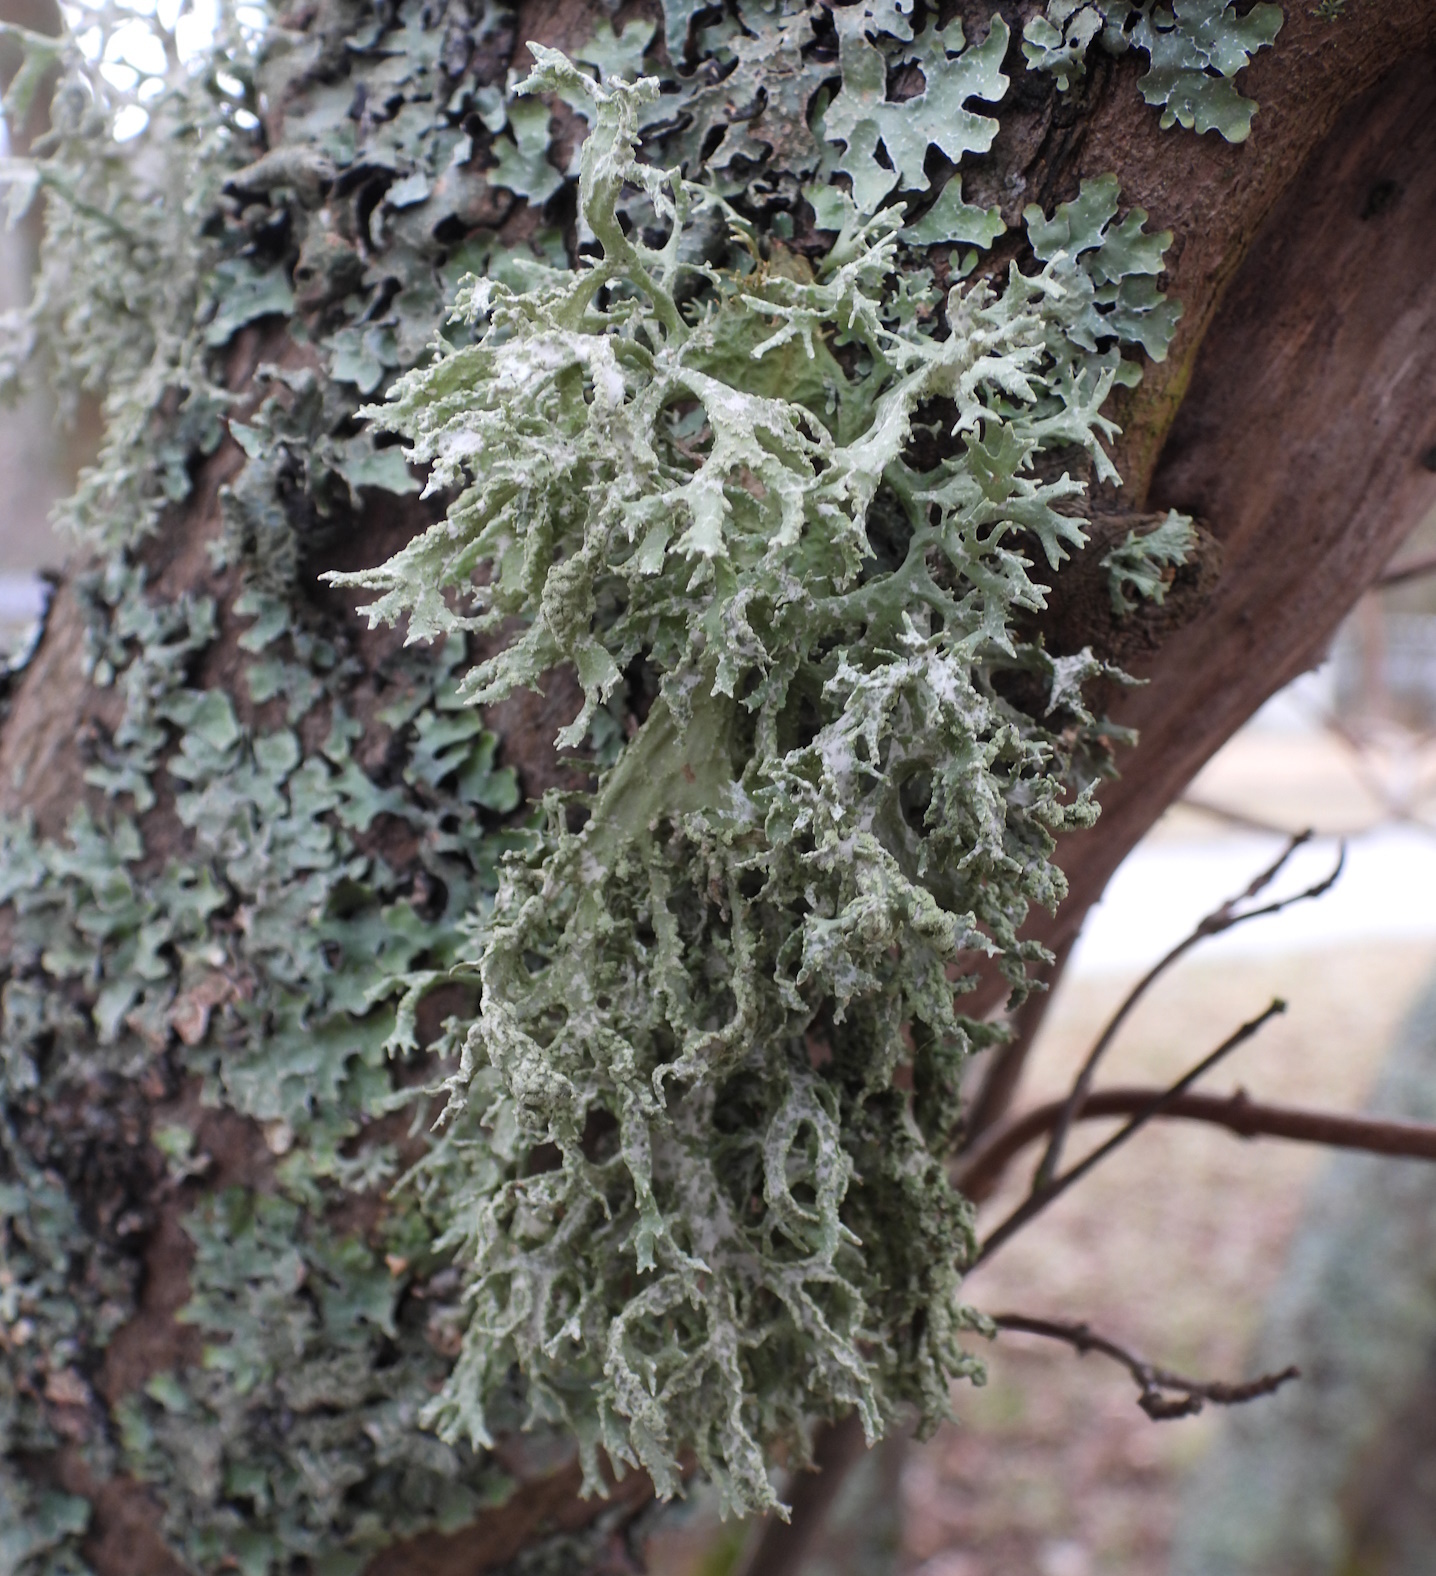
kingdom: Fungi
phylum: Ascomycota
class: Lecanoromycetes
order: Lecanorales
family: Parmeliaceae
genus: Evernia
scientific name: Evernia prunastri
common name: Oak moss
